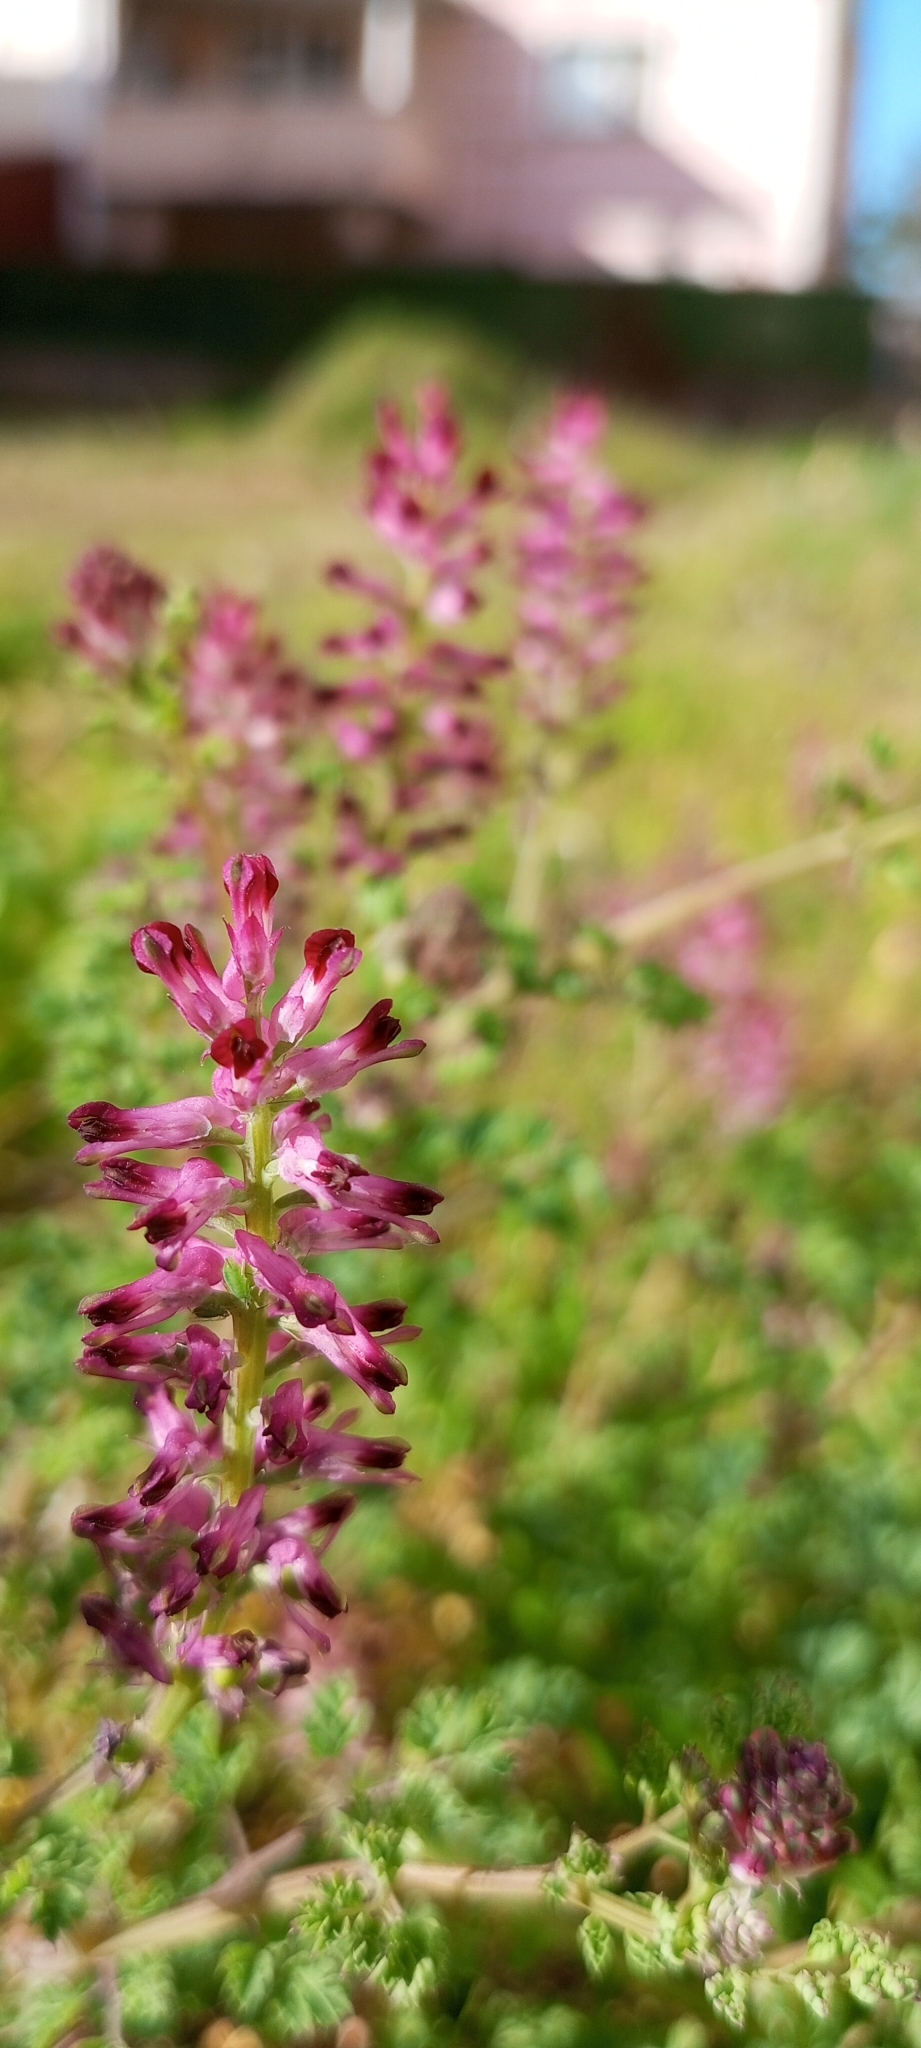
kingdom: Plantae
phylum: Tracheophyta
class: Magnoliopsida
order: Ranunculales
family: Papaveraceae
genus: Fumaria
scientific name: Fumaria officinalis
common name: Common fumitory
